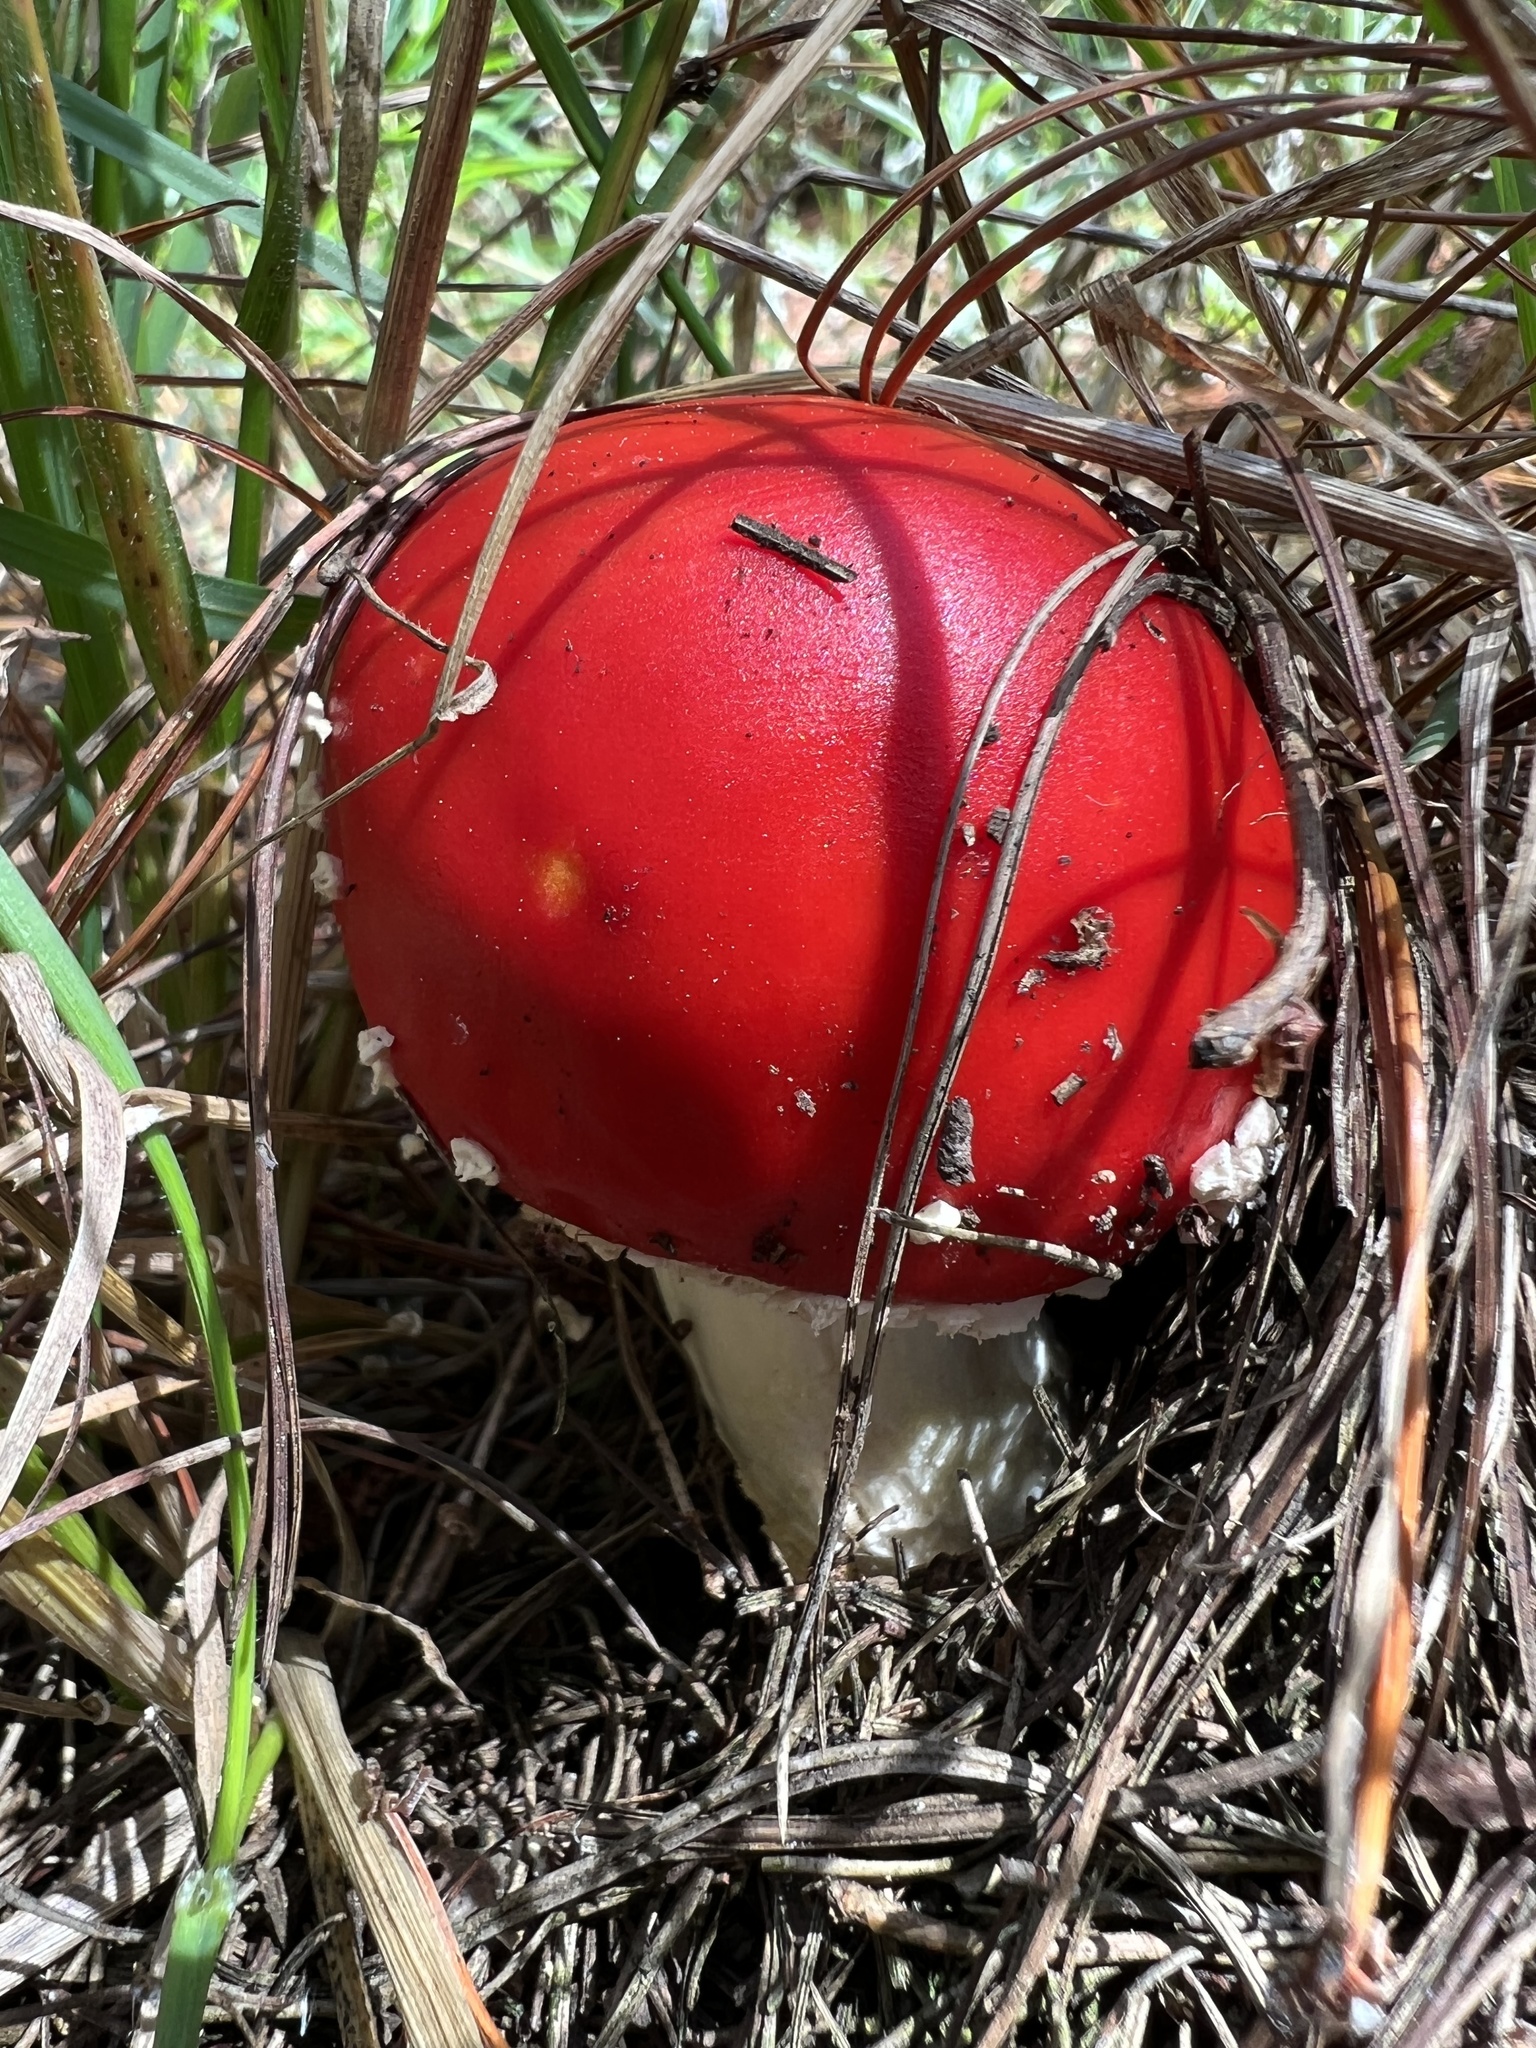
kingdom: Fungi
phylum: Basidiomycota
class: Agaricomycetes
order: Agaricales
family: Amanitaceae
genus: Amanita
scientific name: Amanita muscaria
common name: Fly agaric
